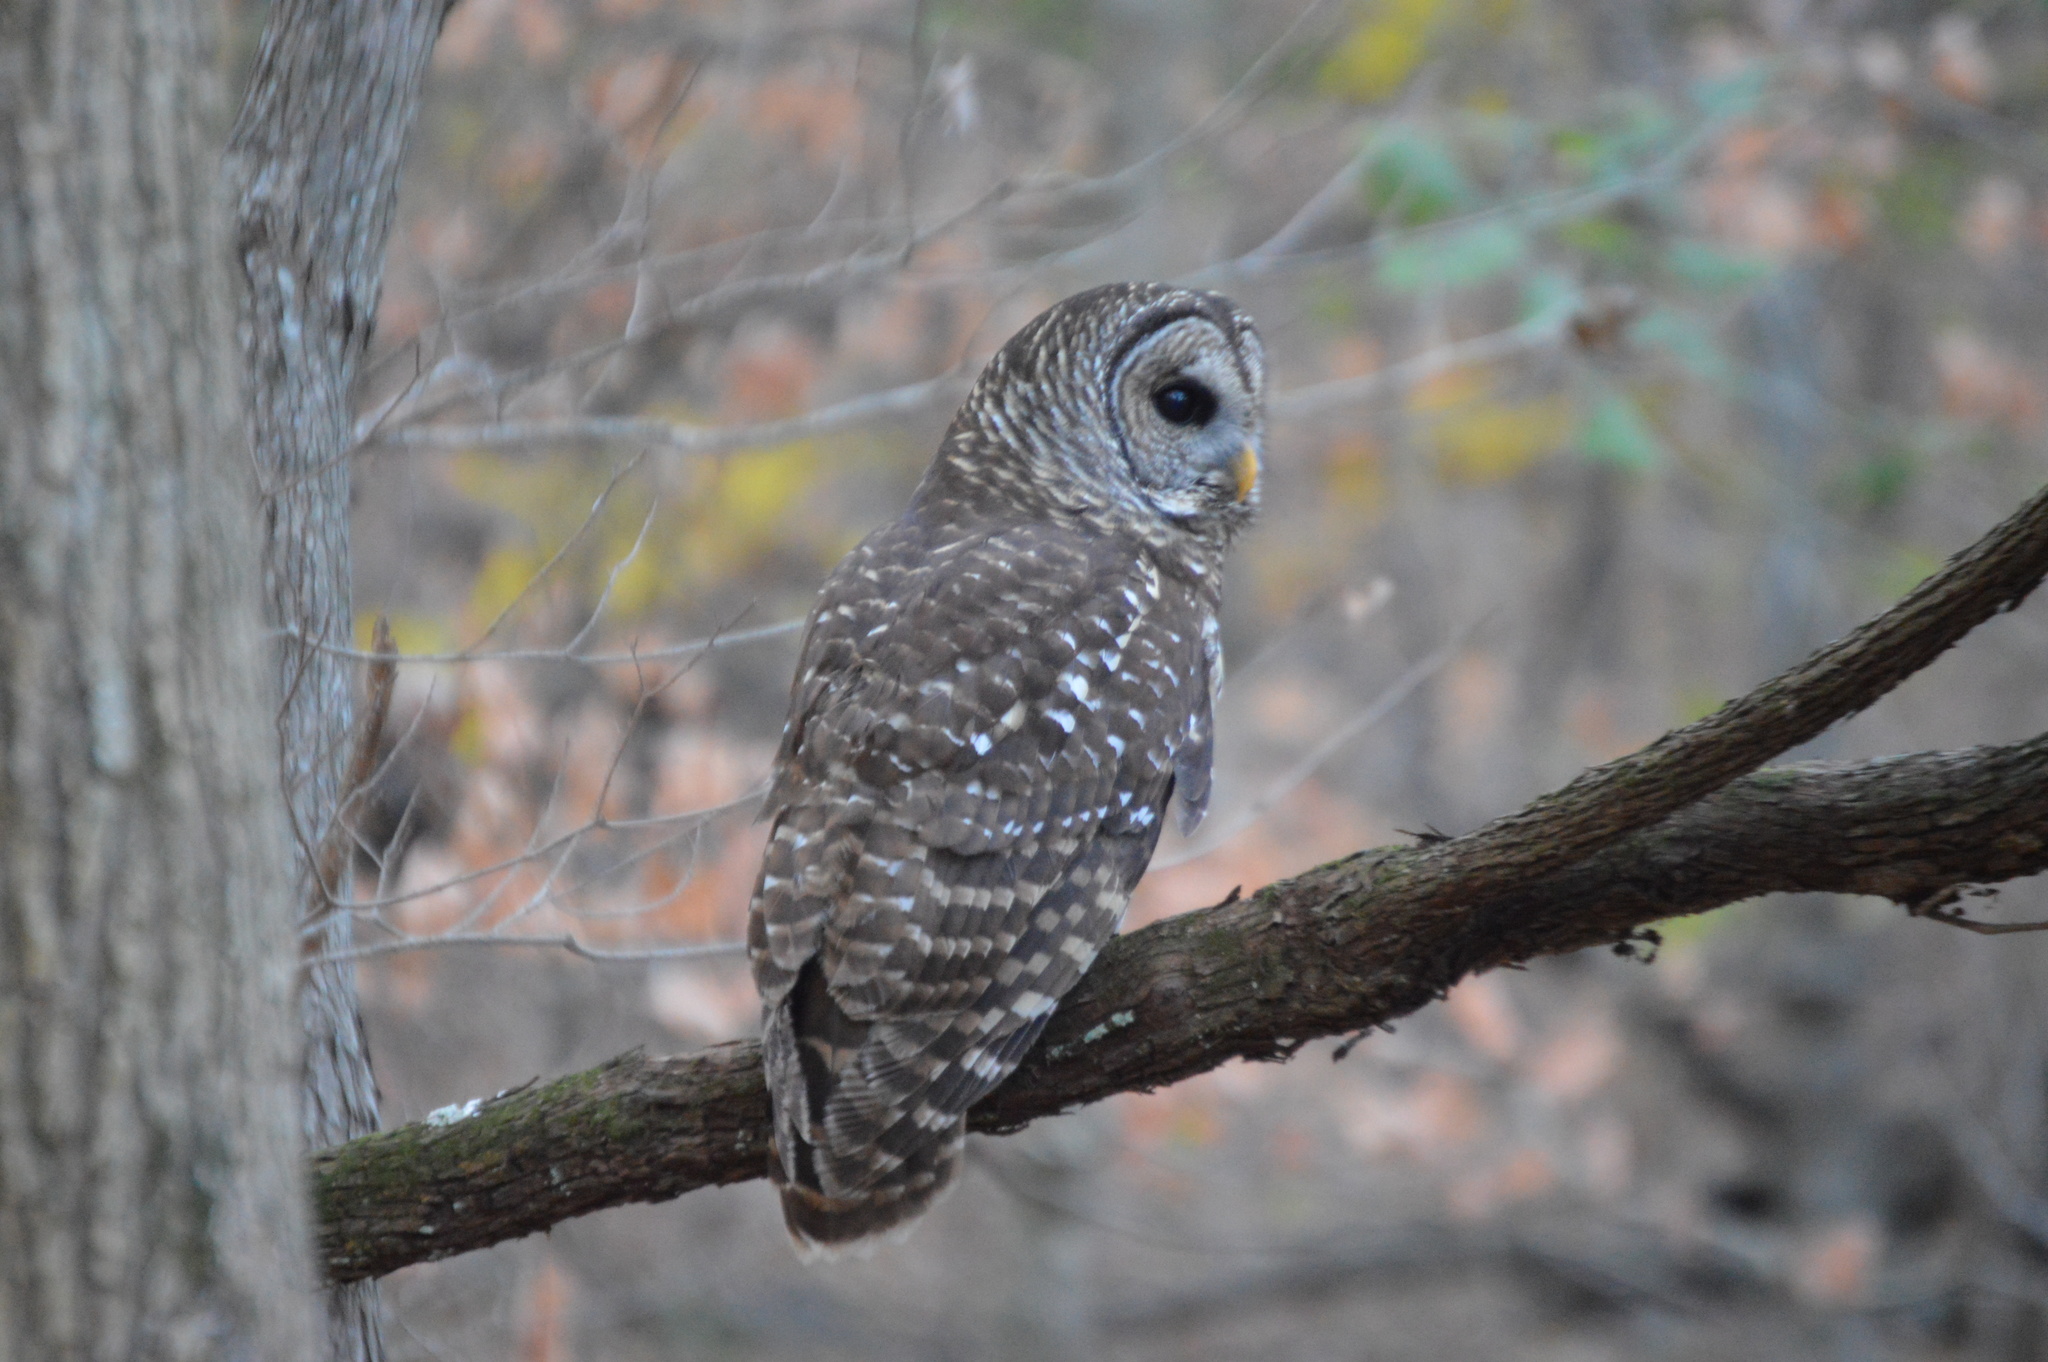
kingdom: Animalia
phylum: Chordata
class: Aves
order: Strigiformes
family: Strigidae
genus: Strix
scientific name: Strix varia
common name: Barred owl
